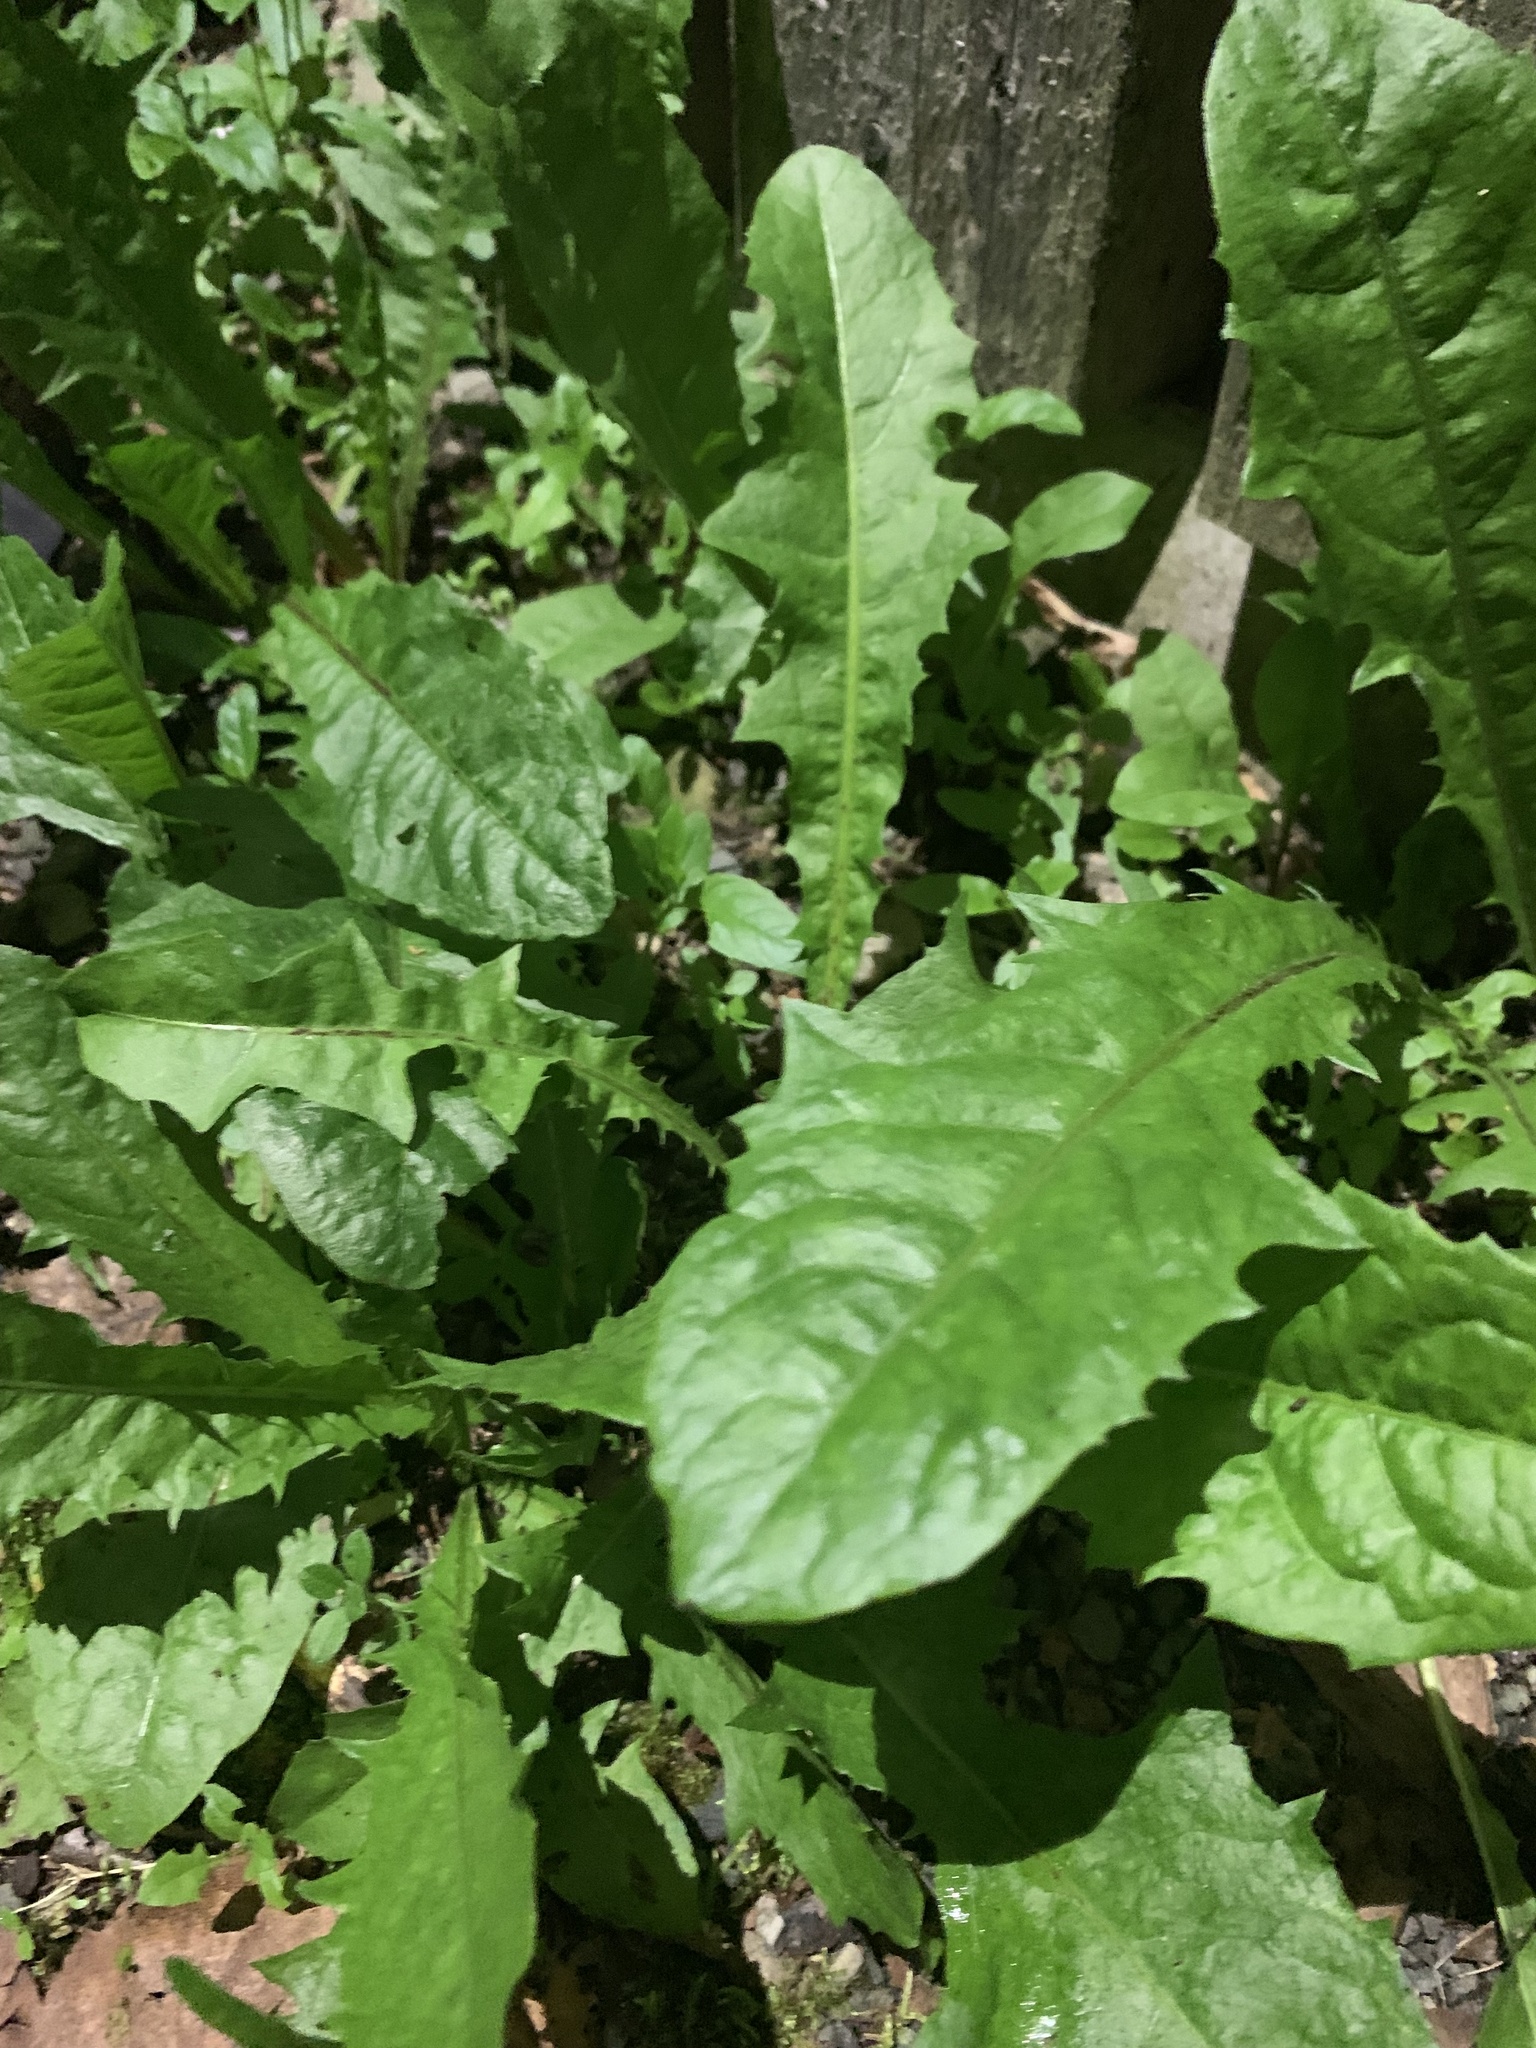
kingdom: Plantae
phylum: Tracheophyta
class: Magnoliopsida
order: Asterales
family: Asteraceae
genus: Taraxacum
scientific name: Taraxacum officinale
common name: Common dandelion
